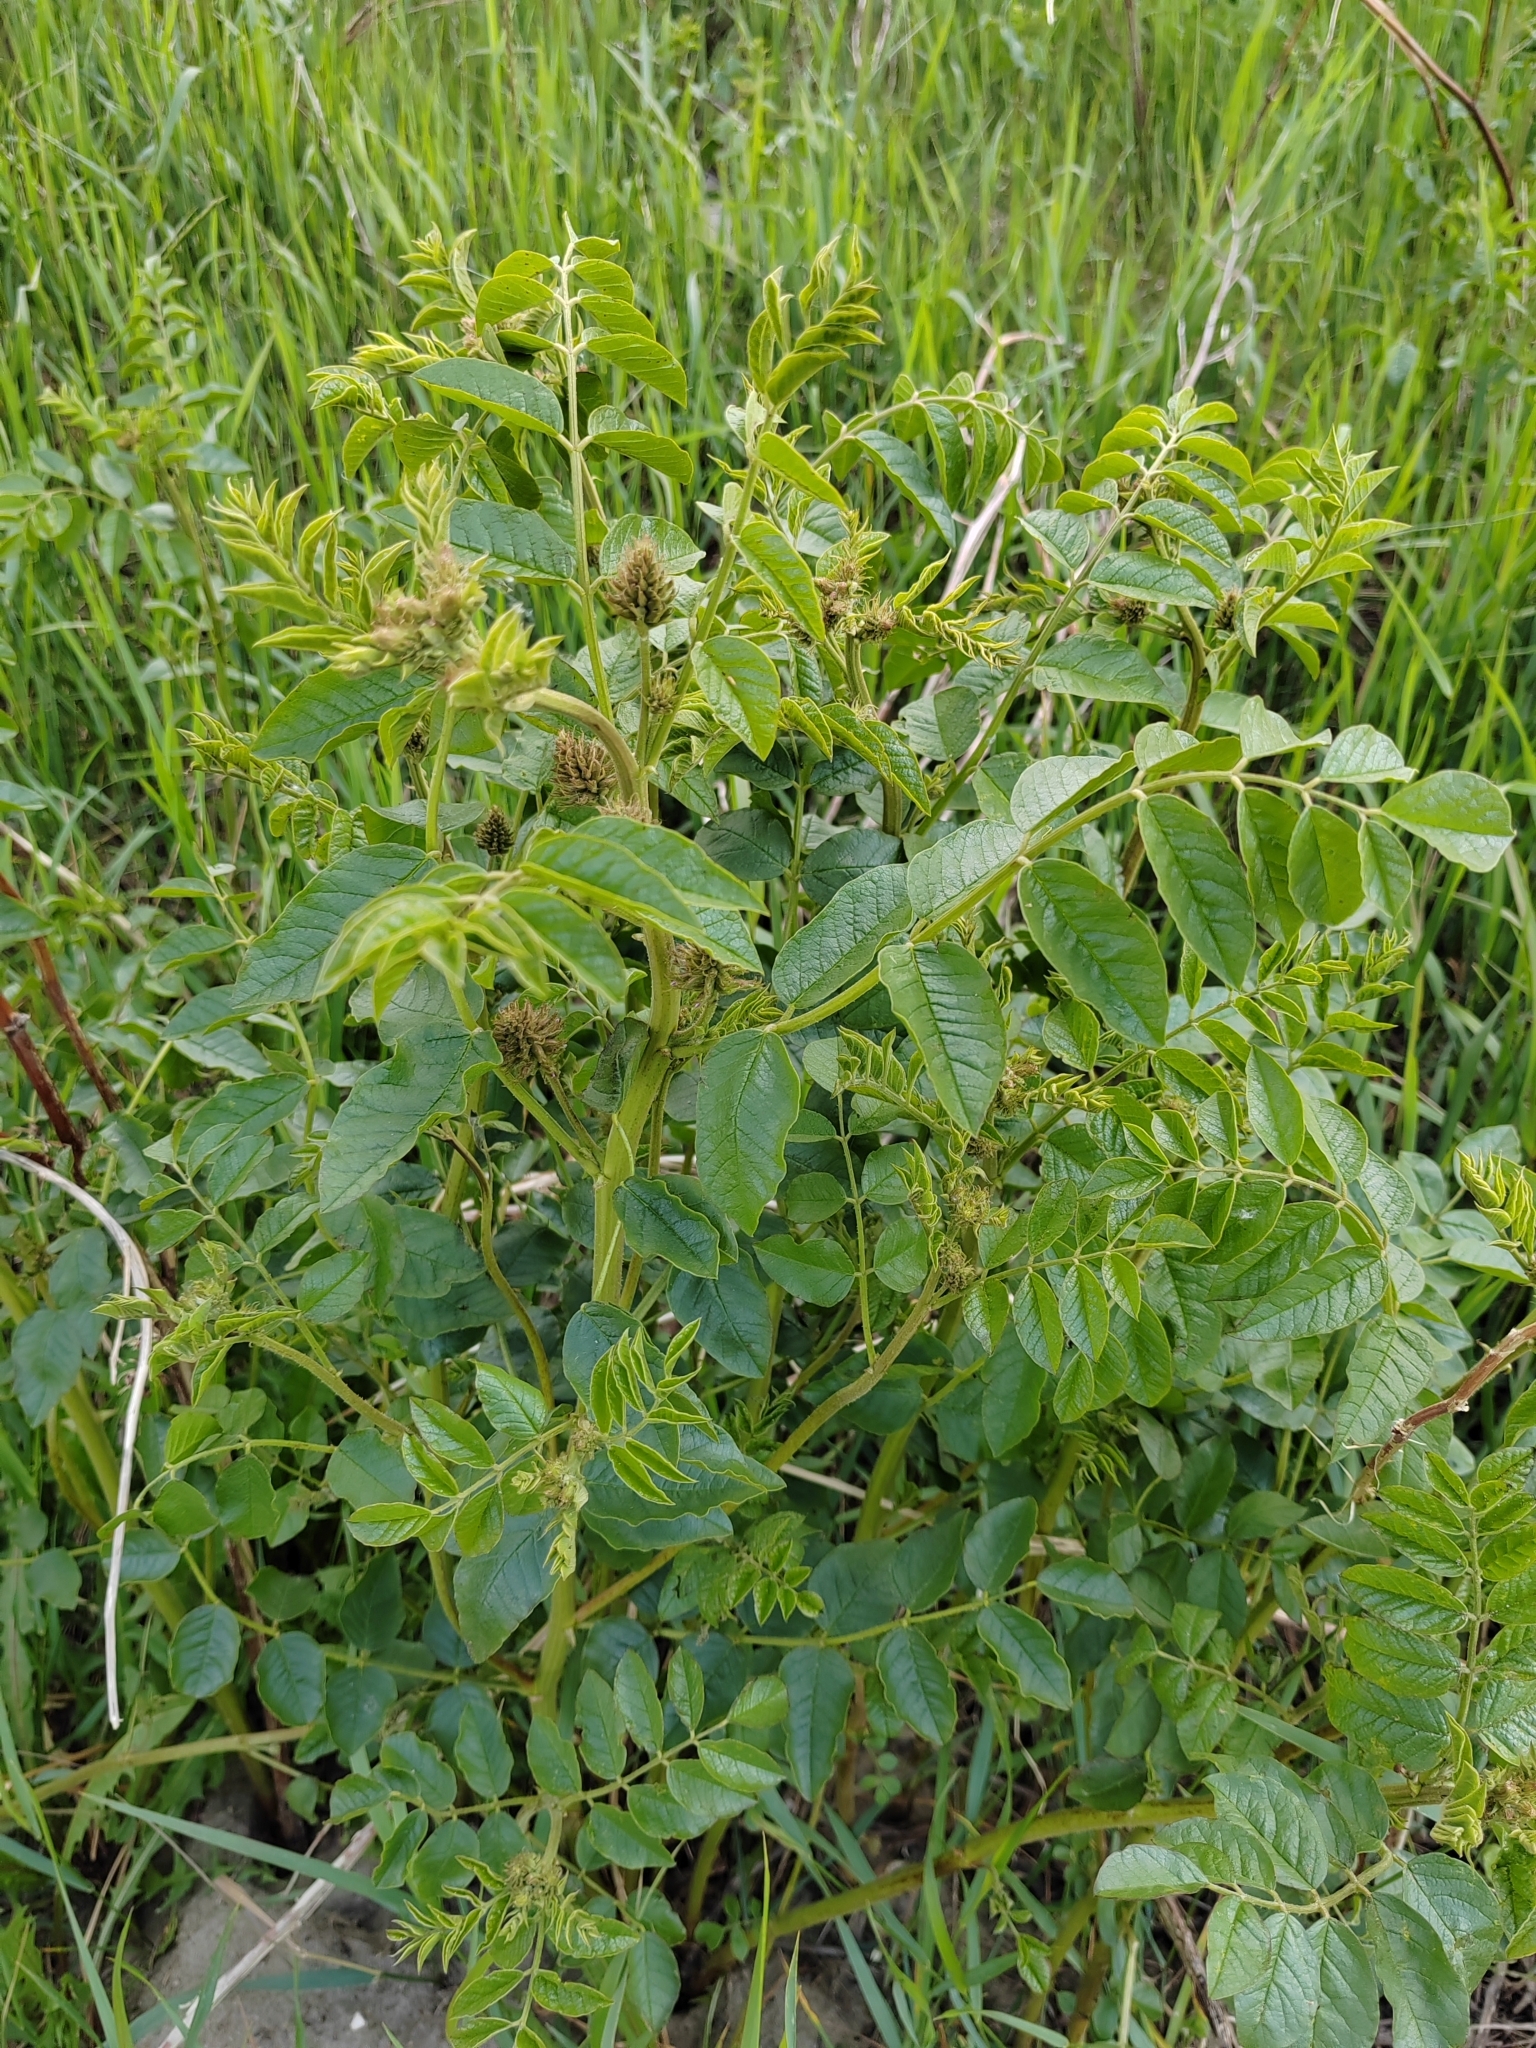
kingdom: Plantae
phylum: Tracheophyta
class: Magnoliopsida
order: Fabales
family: Fabaceae
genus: Glycyrrhiza
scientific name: Glycyrrhiza uralensis
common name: Chinese licorice
